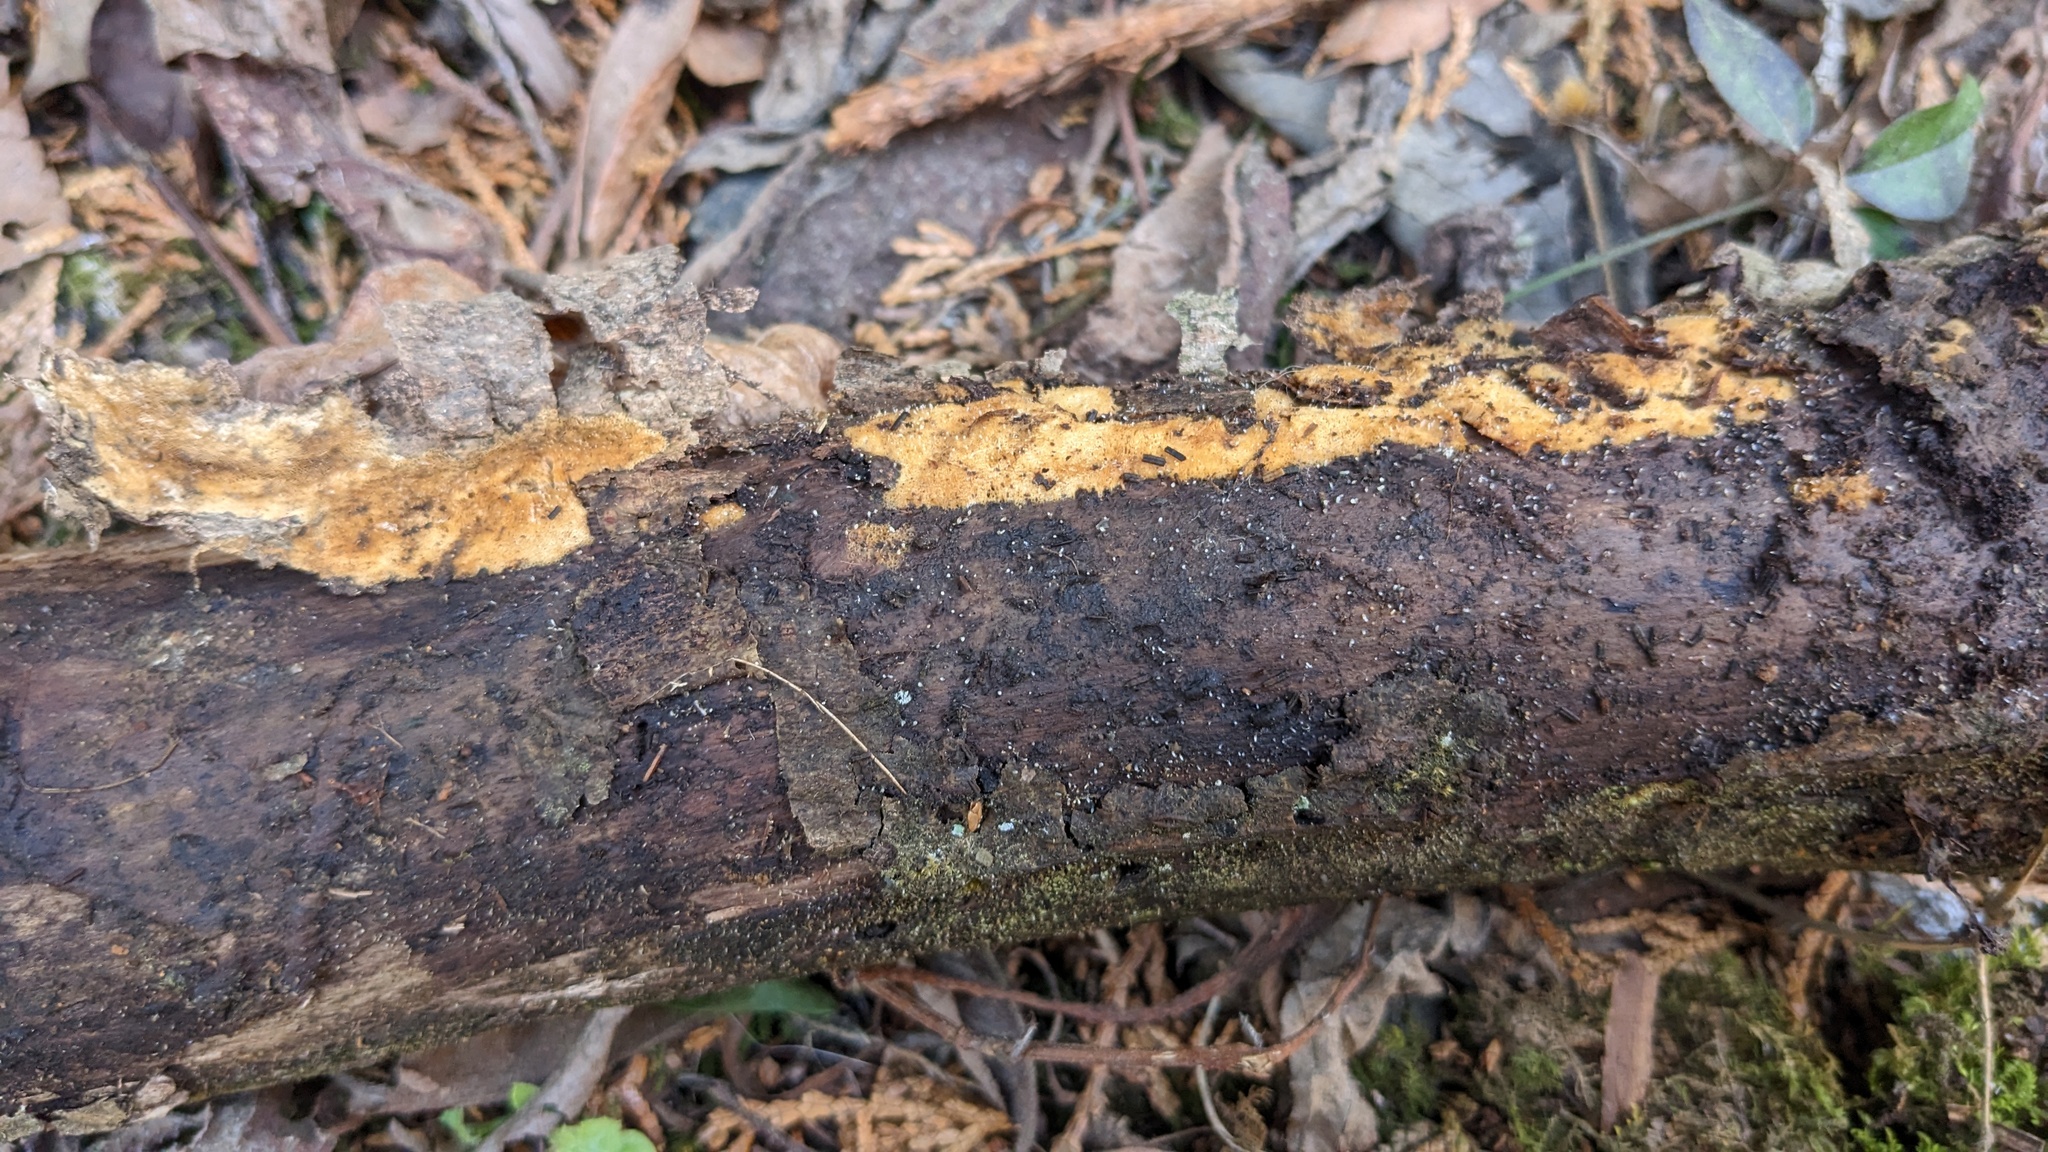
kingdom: Fungi
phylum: Ascomycota
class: Leotiomycetes
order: Helotiales
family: Dermateaceae
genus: Everhartia
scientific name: Everhartia lignatilis
